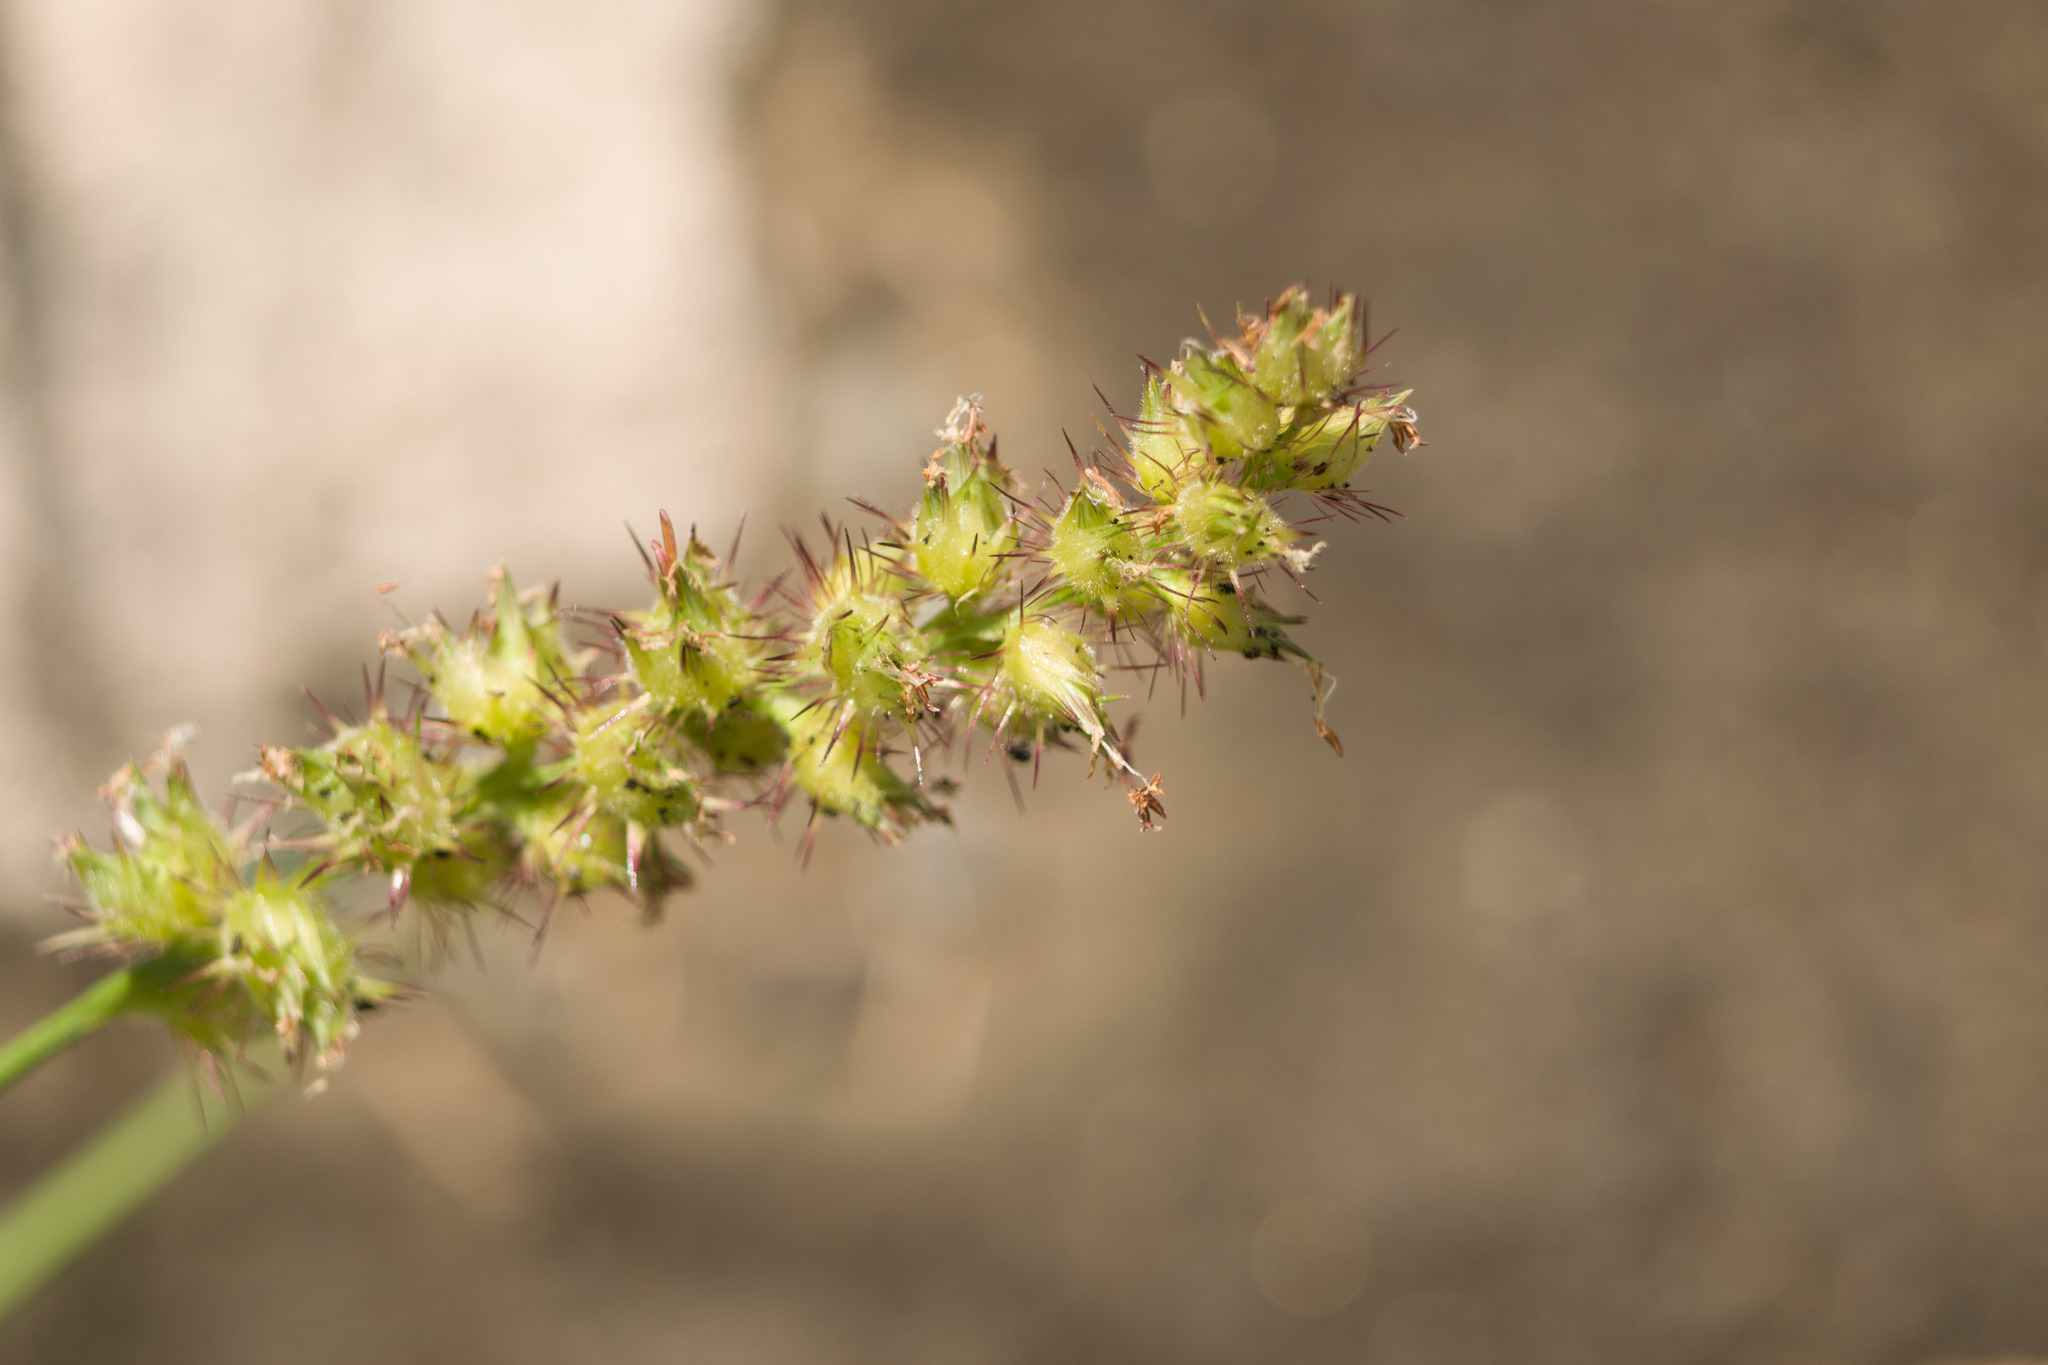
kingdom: Plantae
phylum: Tracheophyta
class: Liliopsida
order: Poales
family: Poaceae
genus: Cenchrus
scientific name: Cenchrus echinatus
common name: Southern sandbur
